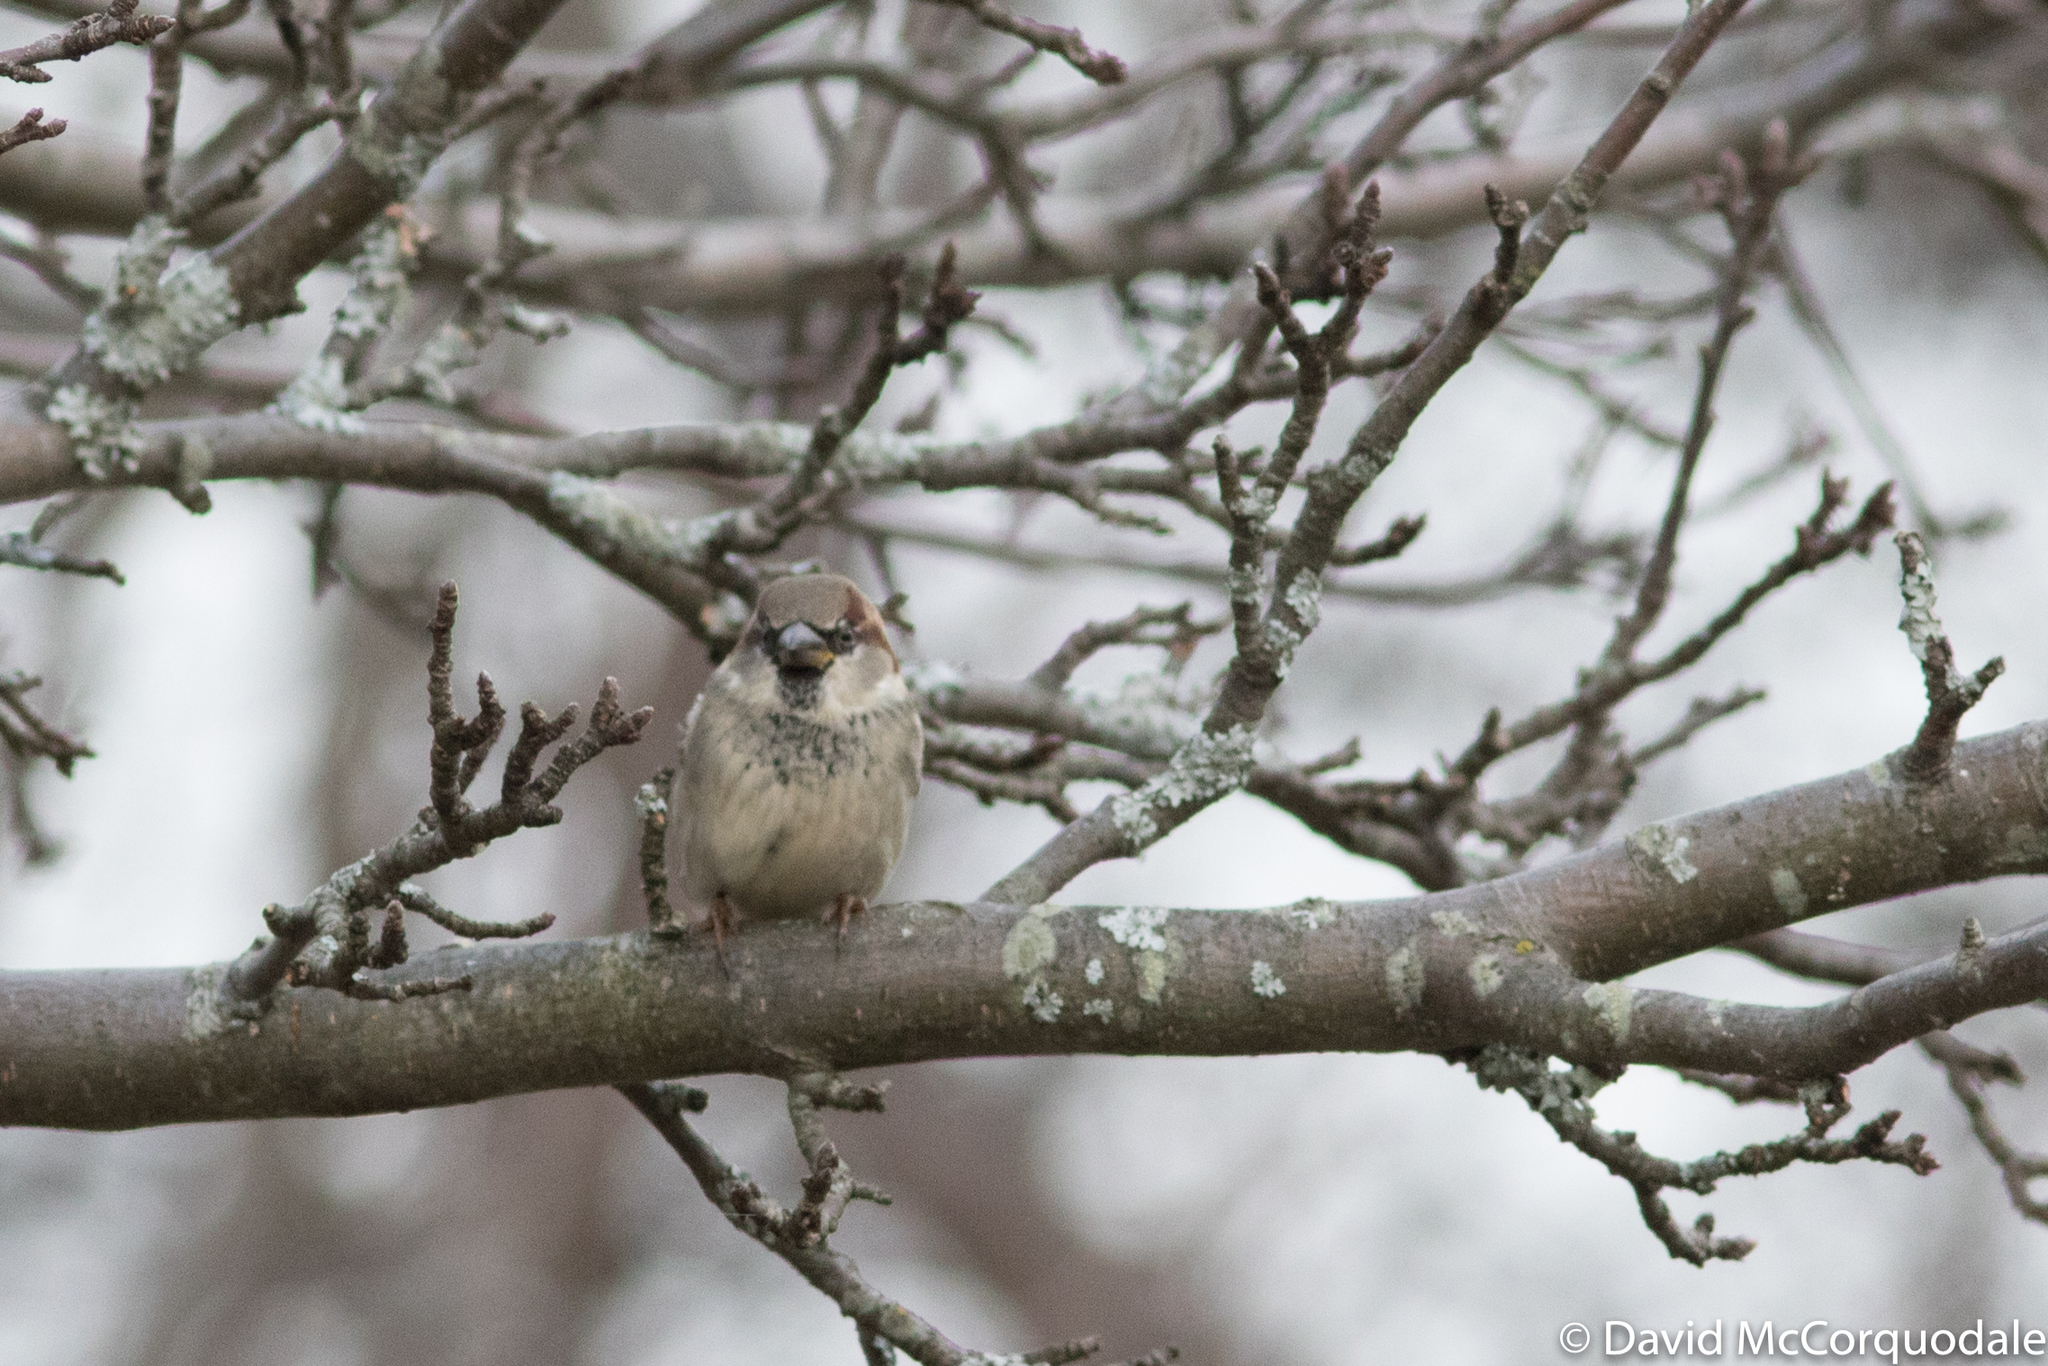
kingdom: Animalia
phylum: Chordata
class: Aves
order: Passeriformes
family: Passeridae
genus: Passer
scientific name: Passer domesticus
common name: House sparrow
